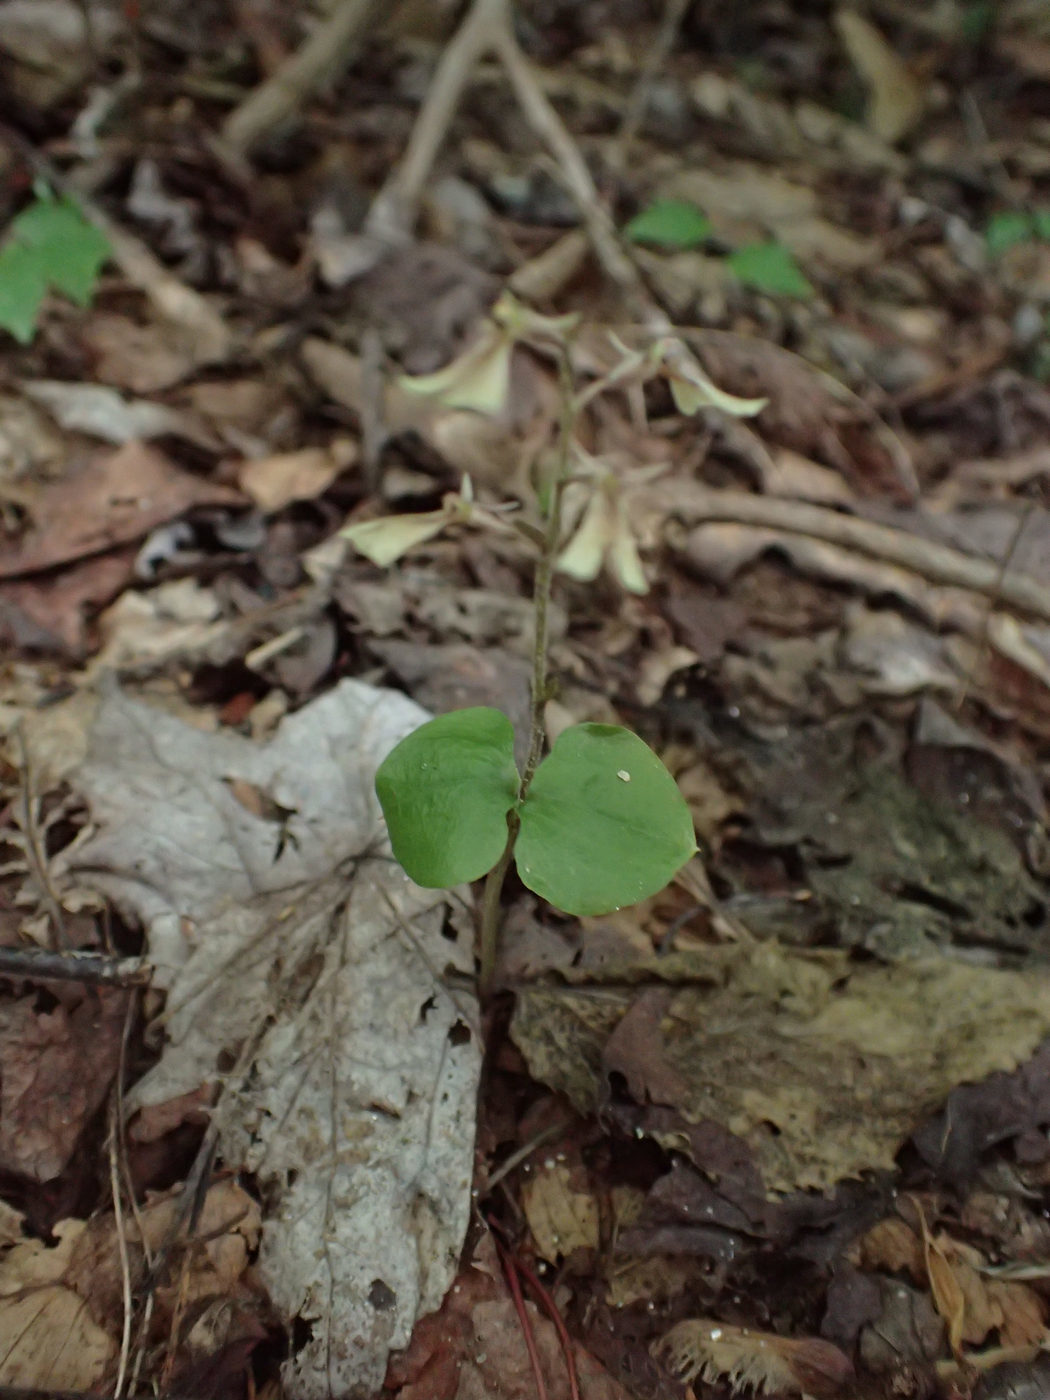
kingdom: Plantae
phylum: Tracheophyta
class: Liliopsida
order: Asparagales
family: Orchidaceae
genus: Neottia
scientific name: Neottia smallii
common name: Kidneyleaf twayblade
